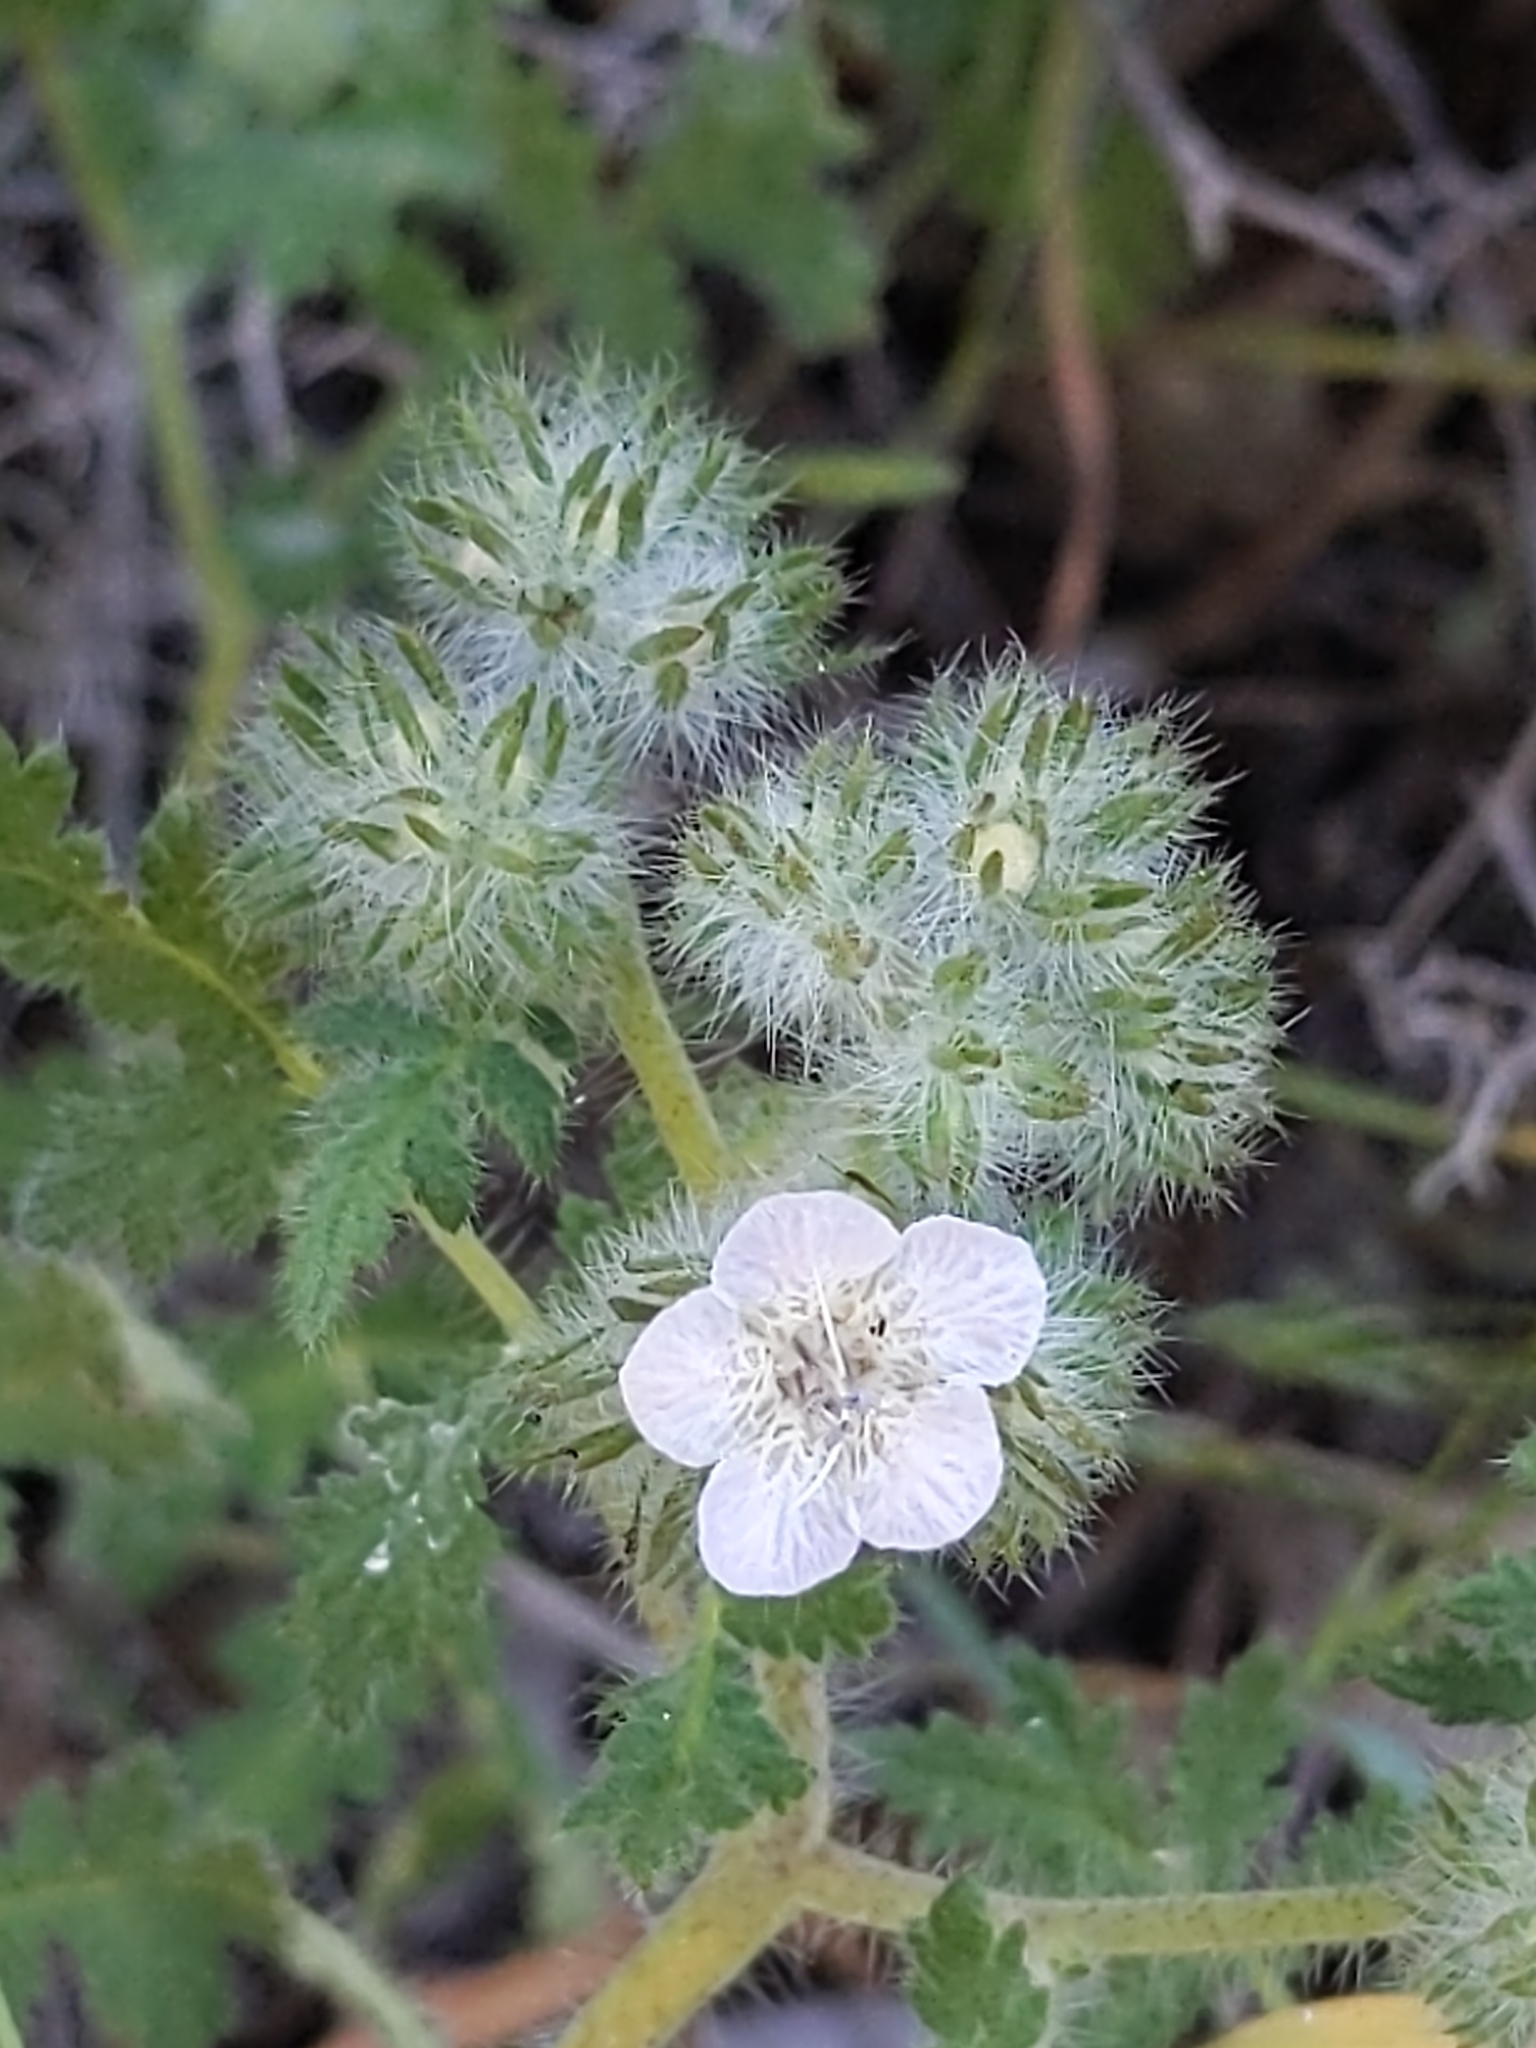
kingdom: Plantae
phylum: Tracheophyta
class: Magnoliopsida
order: Boraginales
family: Hydrophyllaceae
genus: Phacelia
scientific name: Phacelia cicutaria
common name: Caterpillar phacelia
